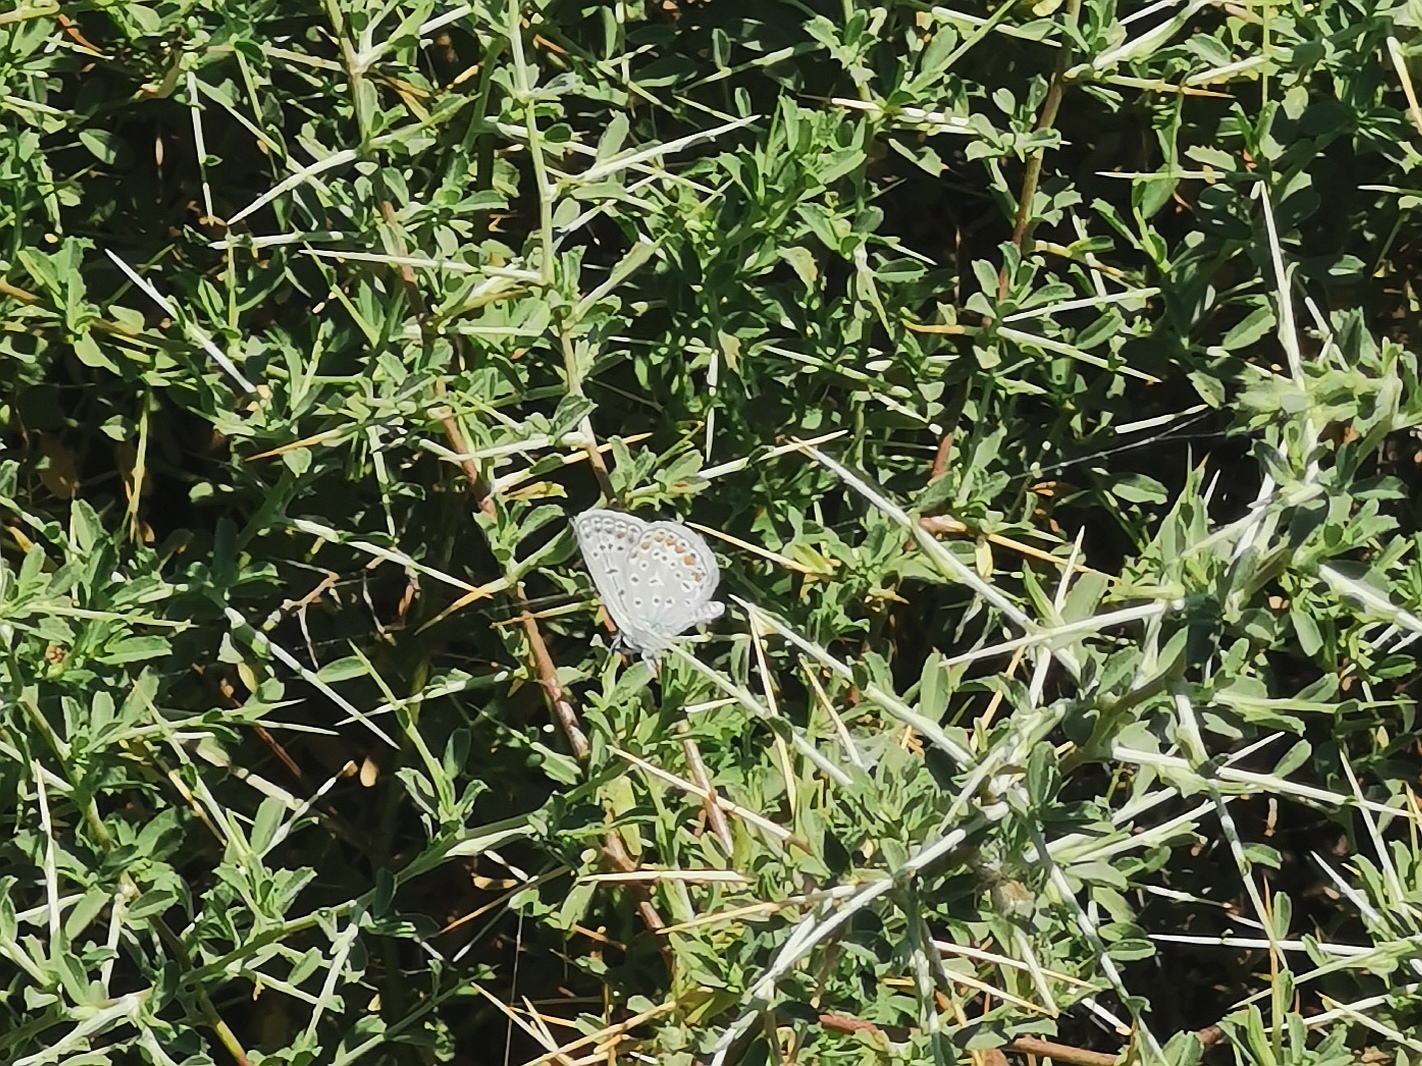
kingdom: Animalia
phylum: Arthropoda
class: Insecta
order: Lepidoptera
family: Lycaenidae
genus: Polyommatus
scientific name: Polyommatus icarus
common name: Common blue
